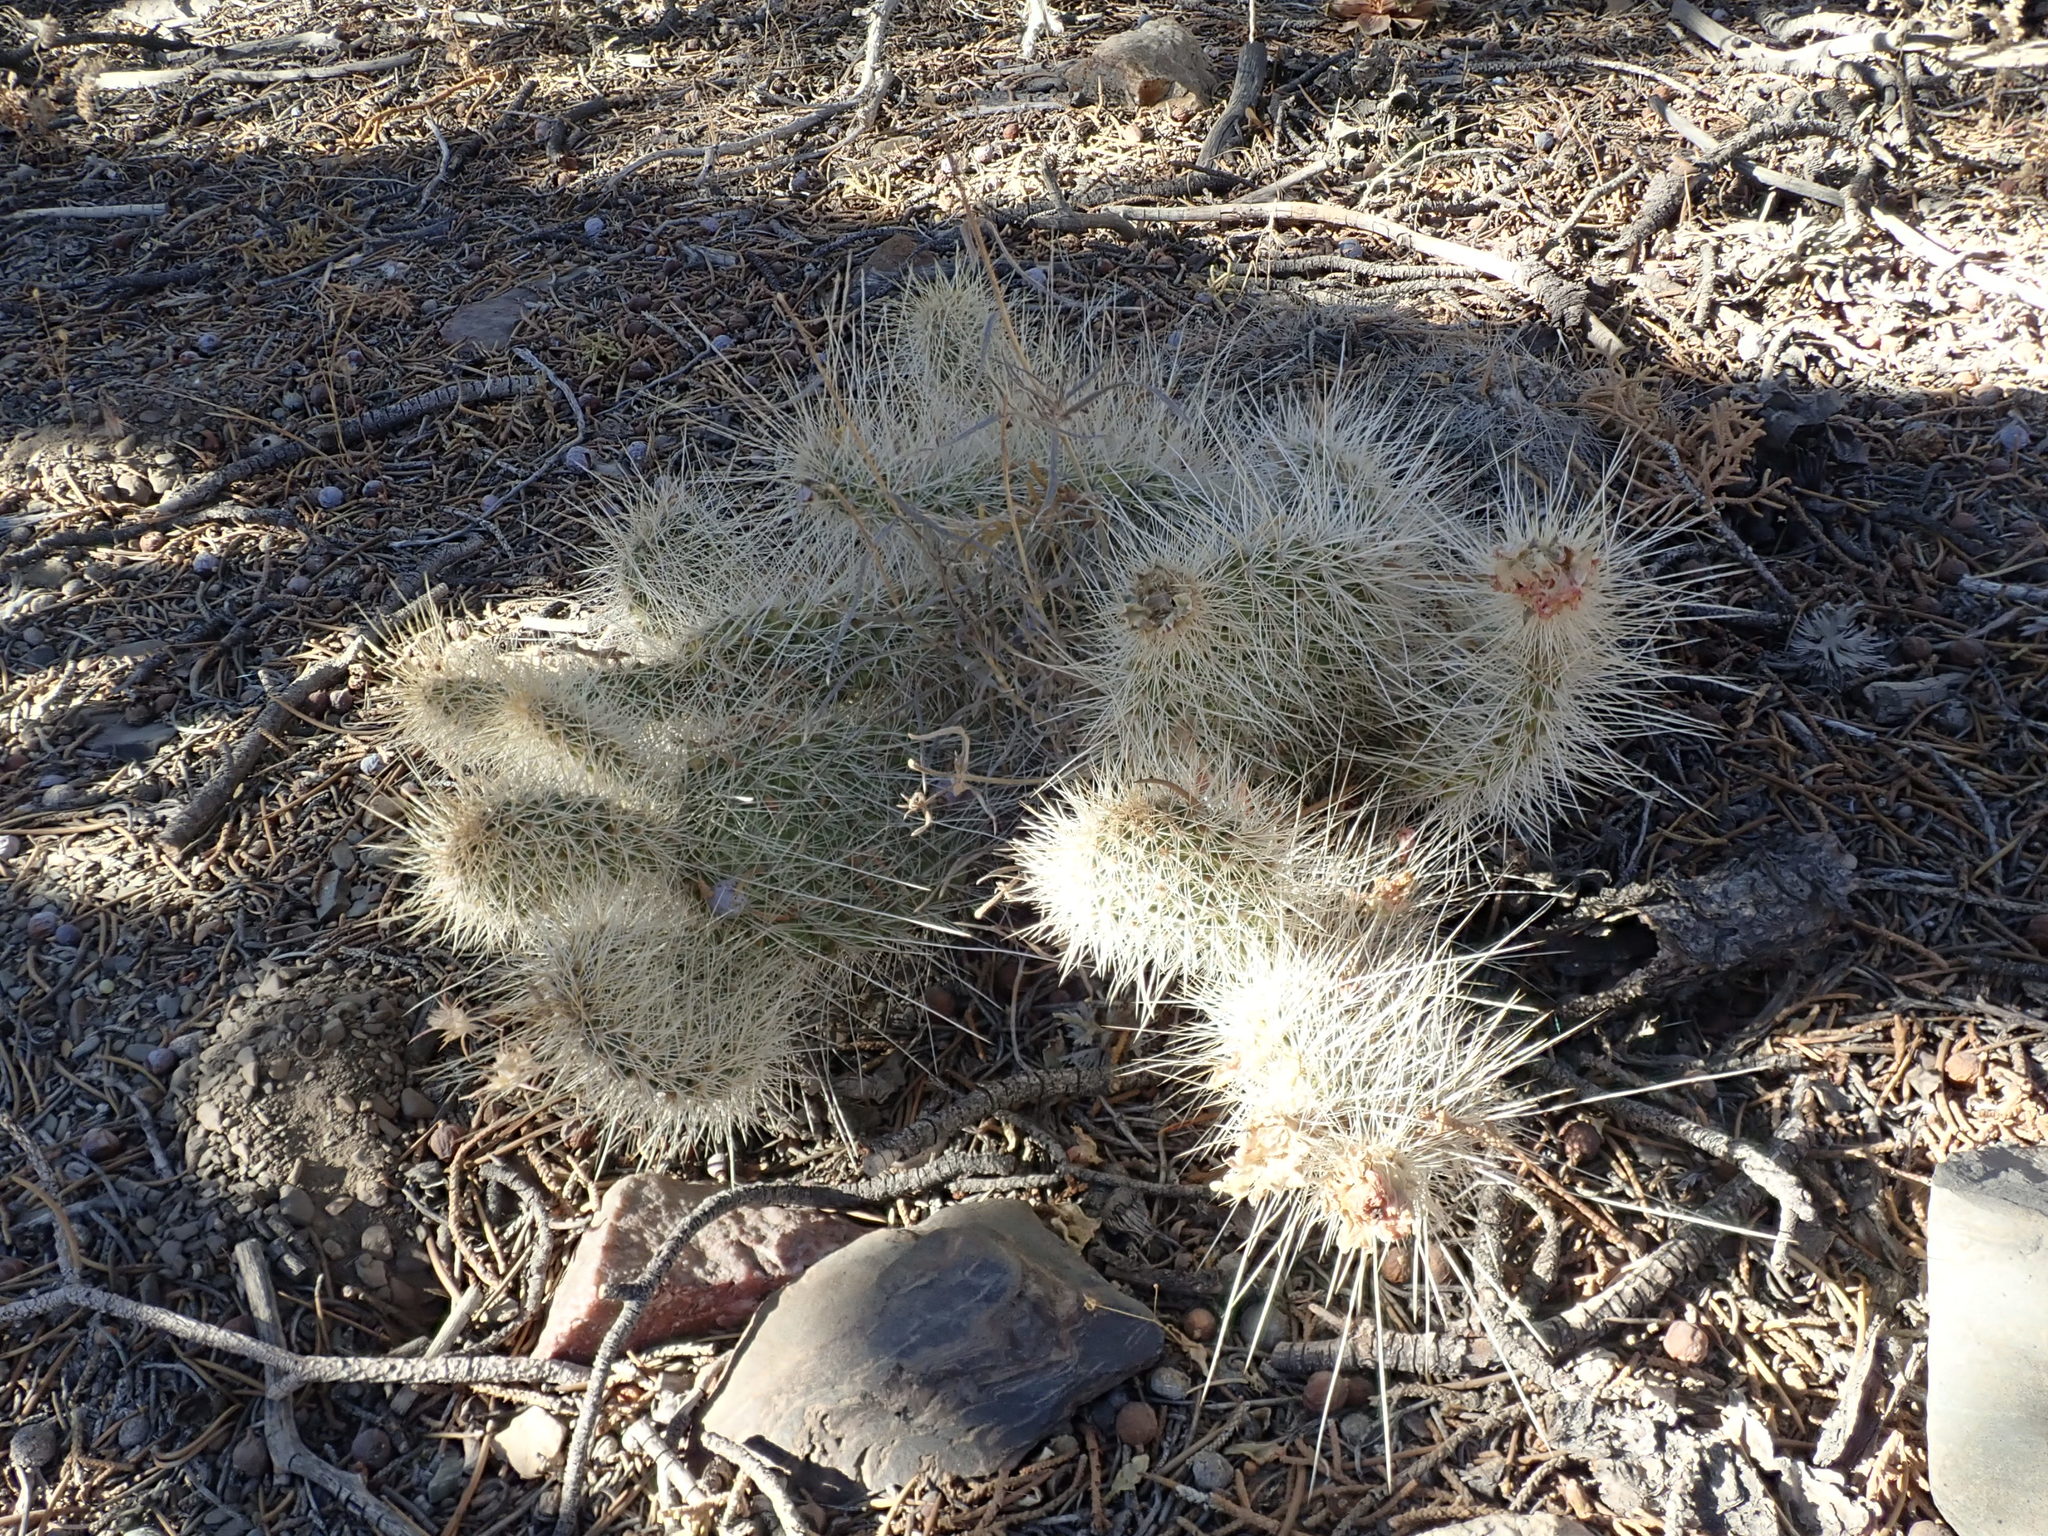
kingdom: Plantae
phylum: Tracheophyta
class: Magnoliopsida
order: Caryophyllales
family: Cactaceae
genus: Opuntia
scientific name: Opuntia polyacantha
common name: Plains prickly-pear
